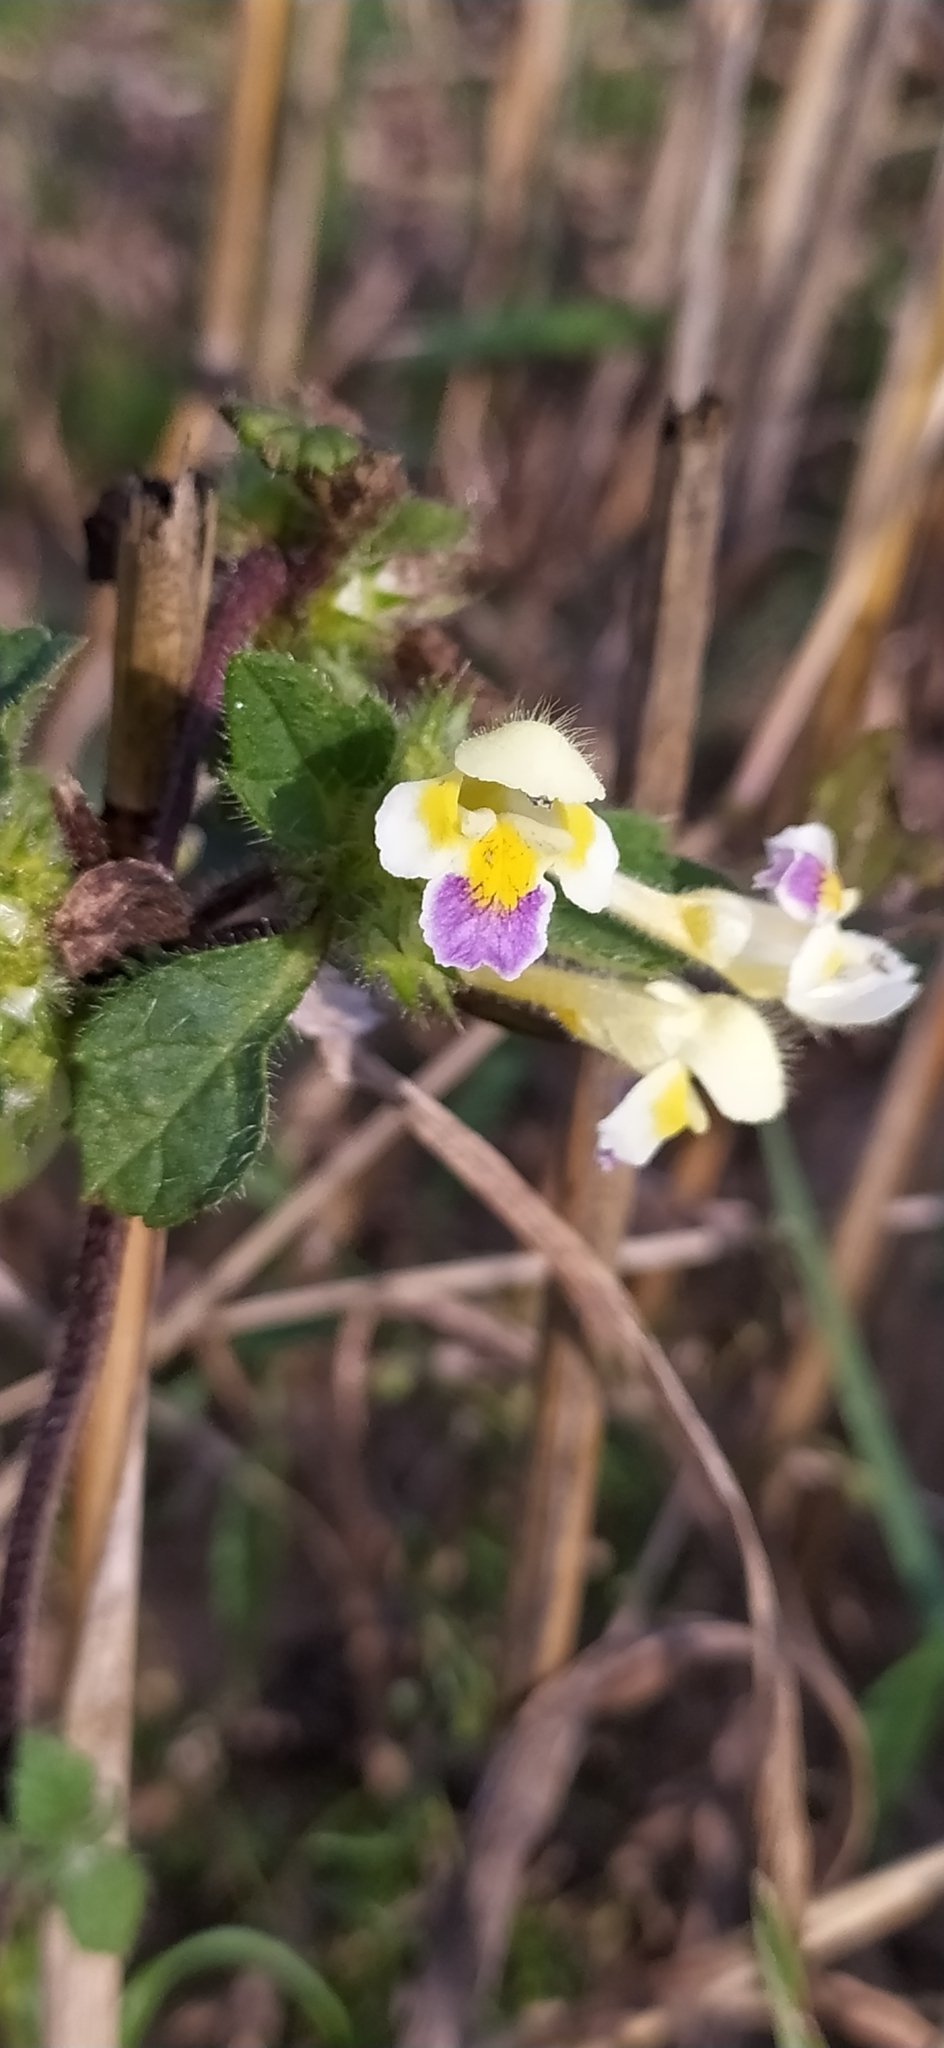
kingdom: Plantae
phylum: Tracheophyta
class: Magnoliopsida
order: Lamiales
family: Lamiaceae
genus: Galeopsis
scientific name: Galeopsis speciosa
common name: Large-flowered hemp-nettle
